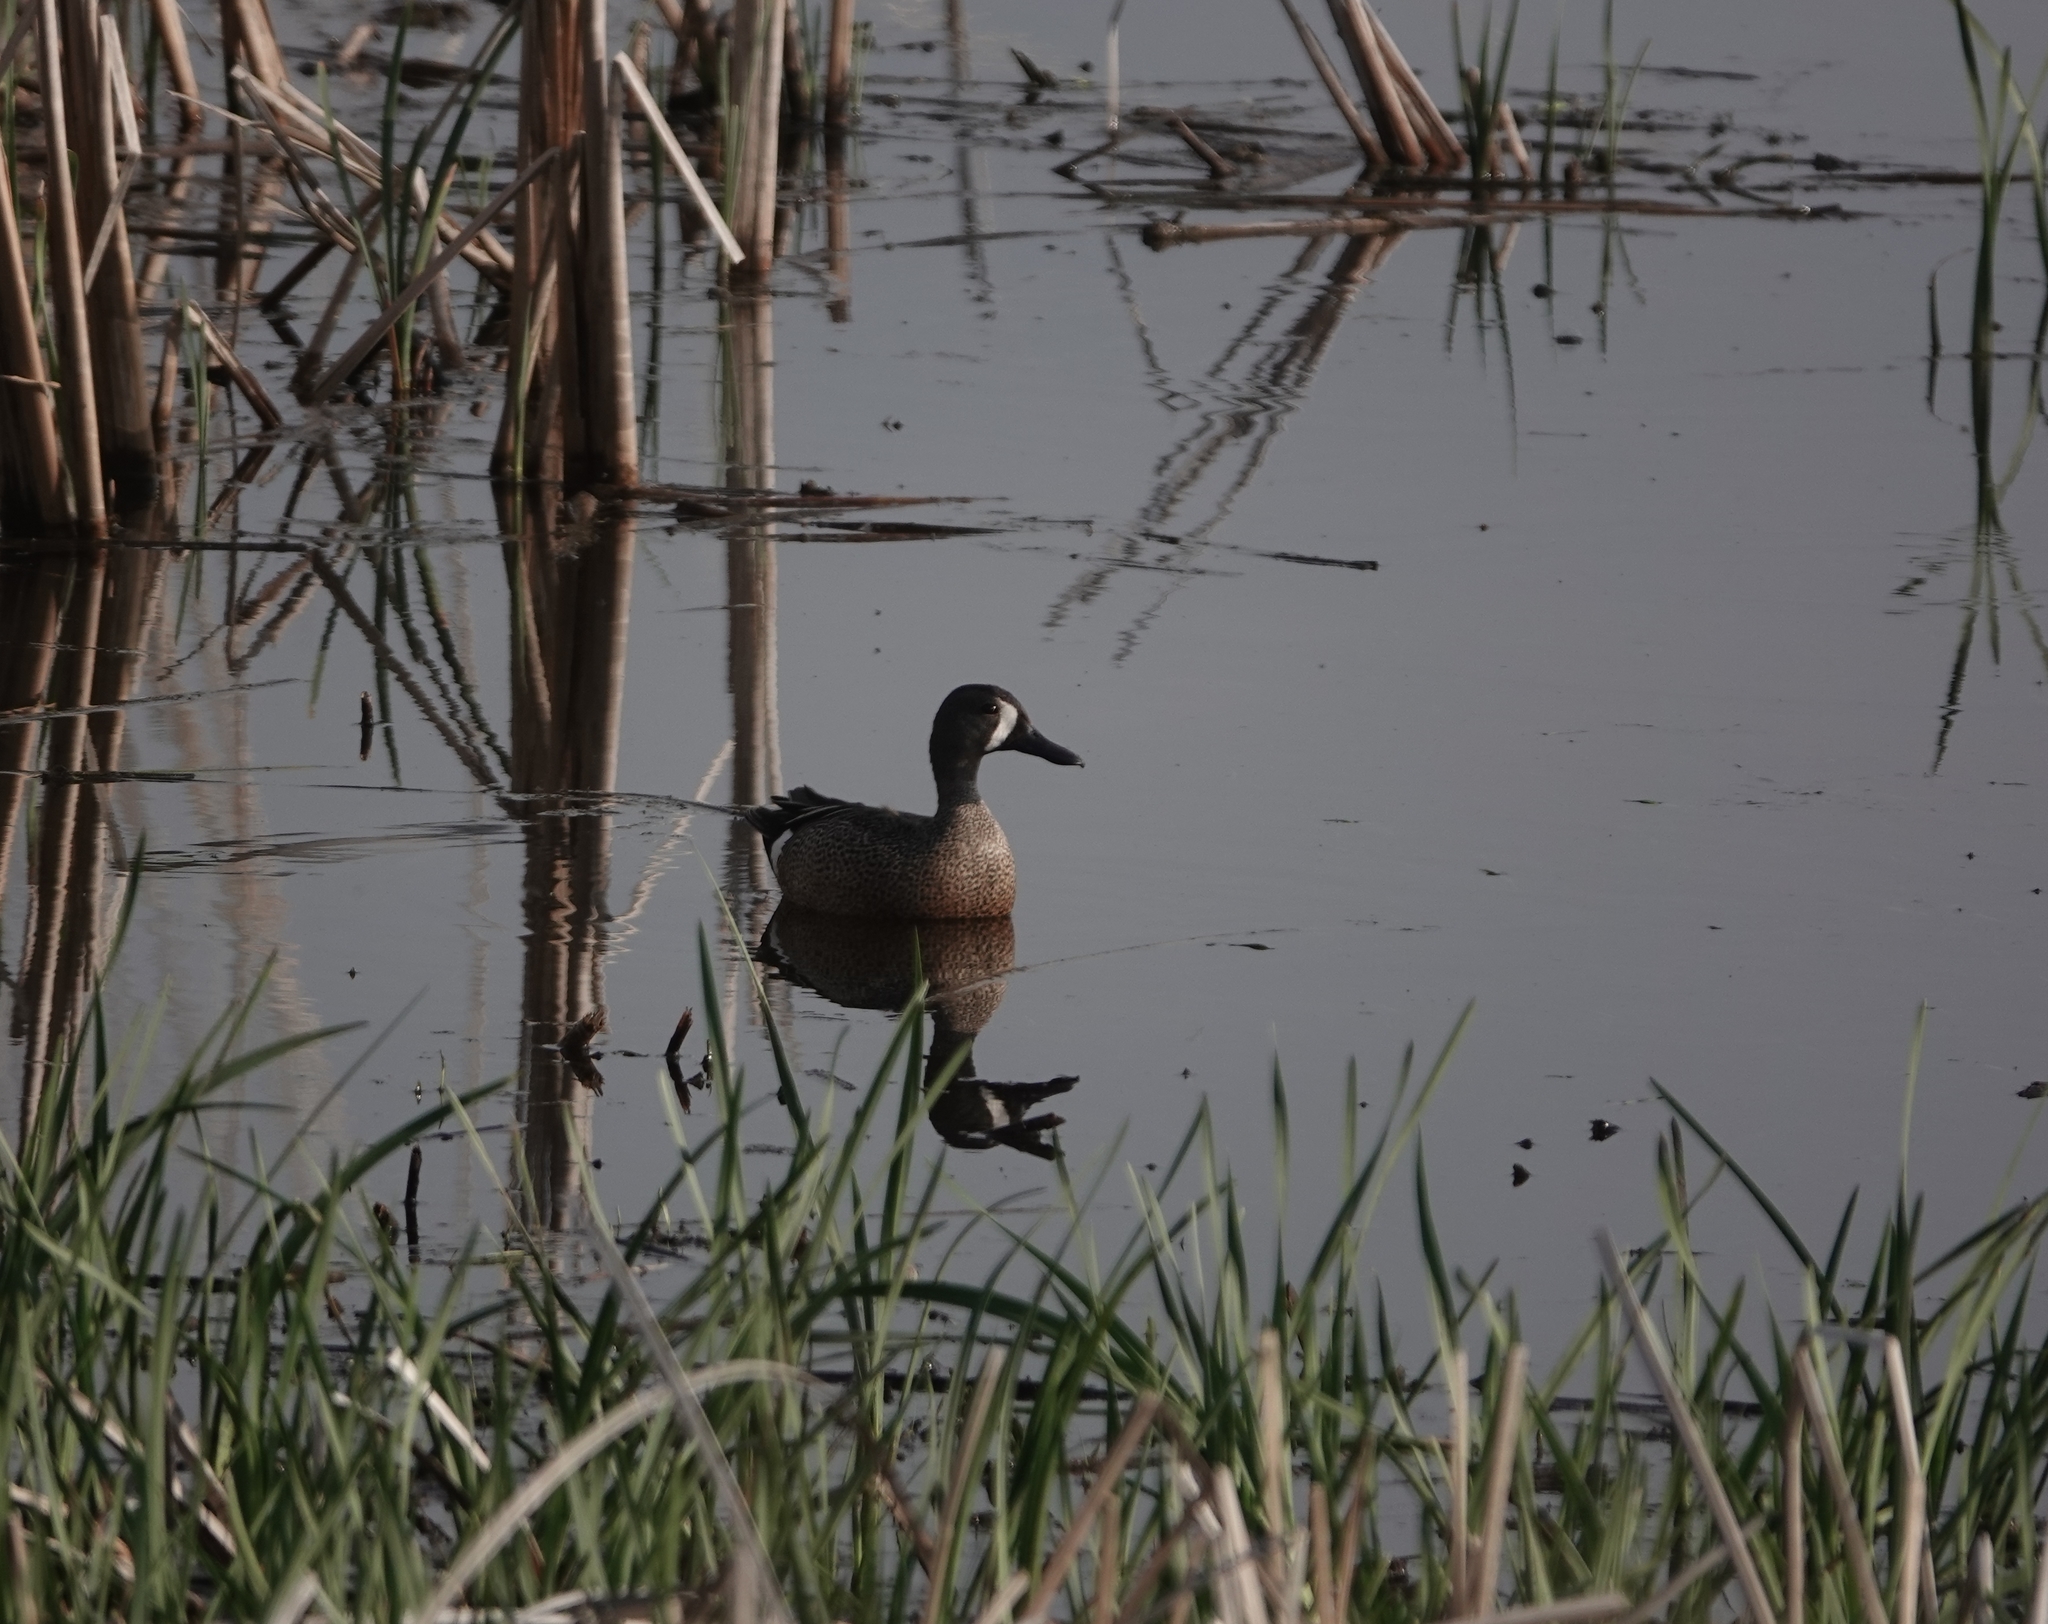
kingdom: Animalia
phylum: Chordata
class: Aves
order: Anseriformes
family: Anatidae
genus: Spatula
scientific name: Spatula discors
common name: Blue-winged teal
